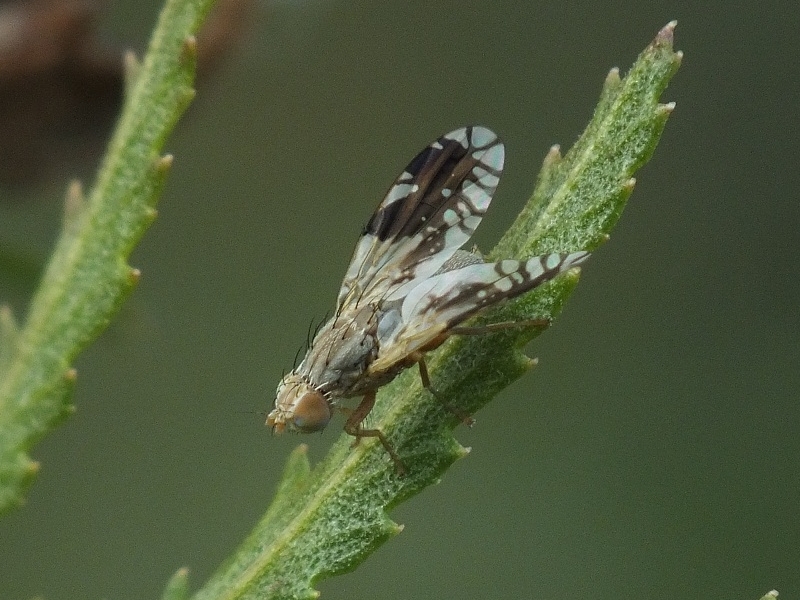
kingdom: Animalia
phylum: Arthropoda
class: Insecta
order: Diptera
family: Tephritidae
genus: Tephritis
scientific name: Tephritis hurvitzi
